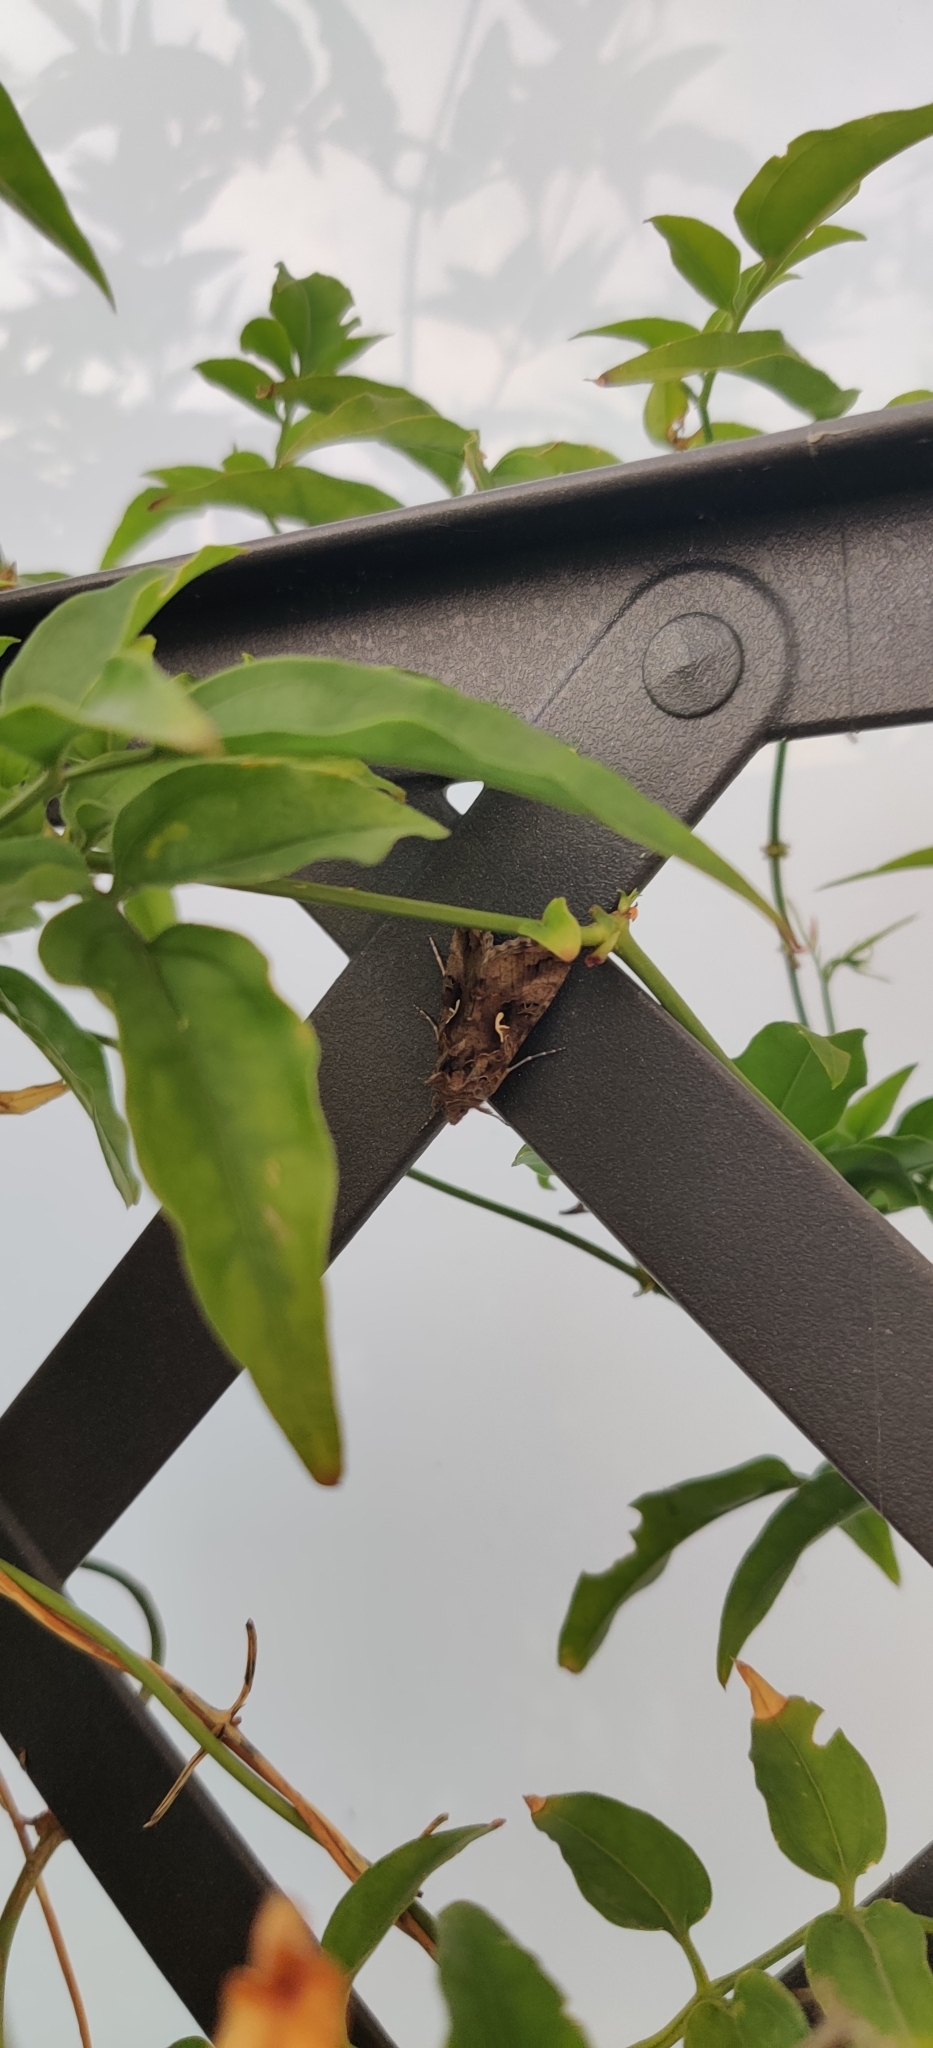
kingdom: Animalia
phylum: Arthropoda
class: Insecta
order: Lepidoptera
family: Noctuidae
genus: Autographa
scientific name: Autographa gamma
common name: Silver y
